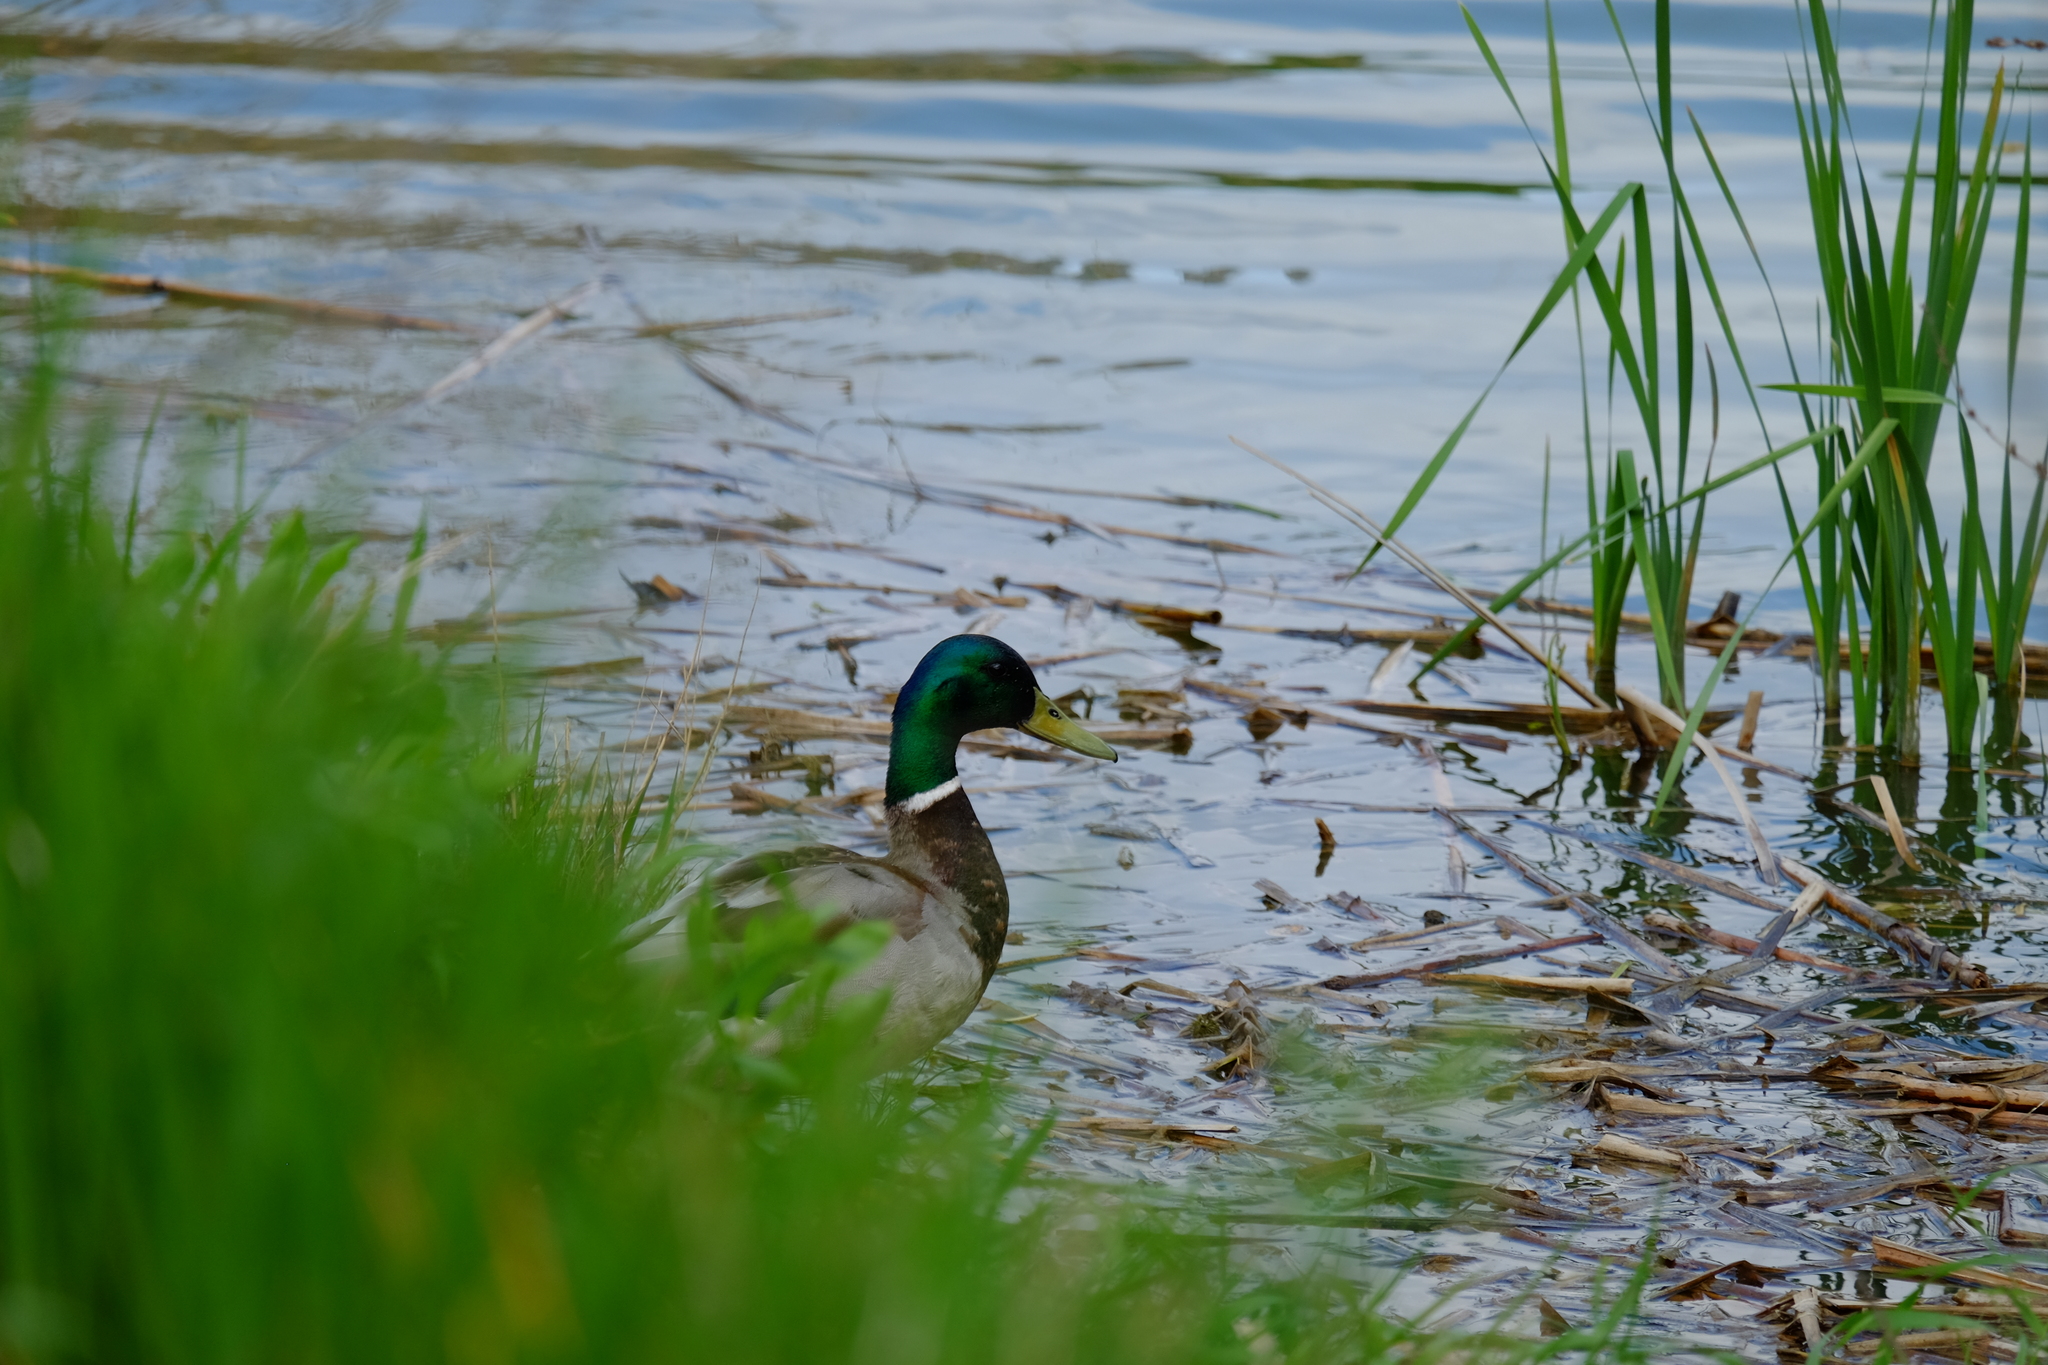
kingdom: Animalia
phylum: Chordata
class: Aves
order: Anseriformes
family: Anatidae
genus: Anas
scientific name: Anas platyrhynchos
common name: Mallard
